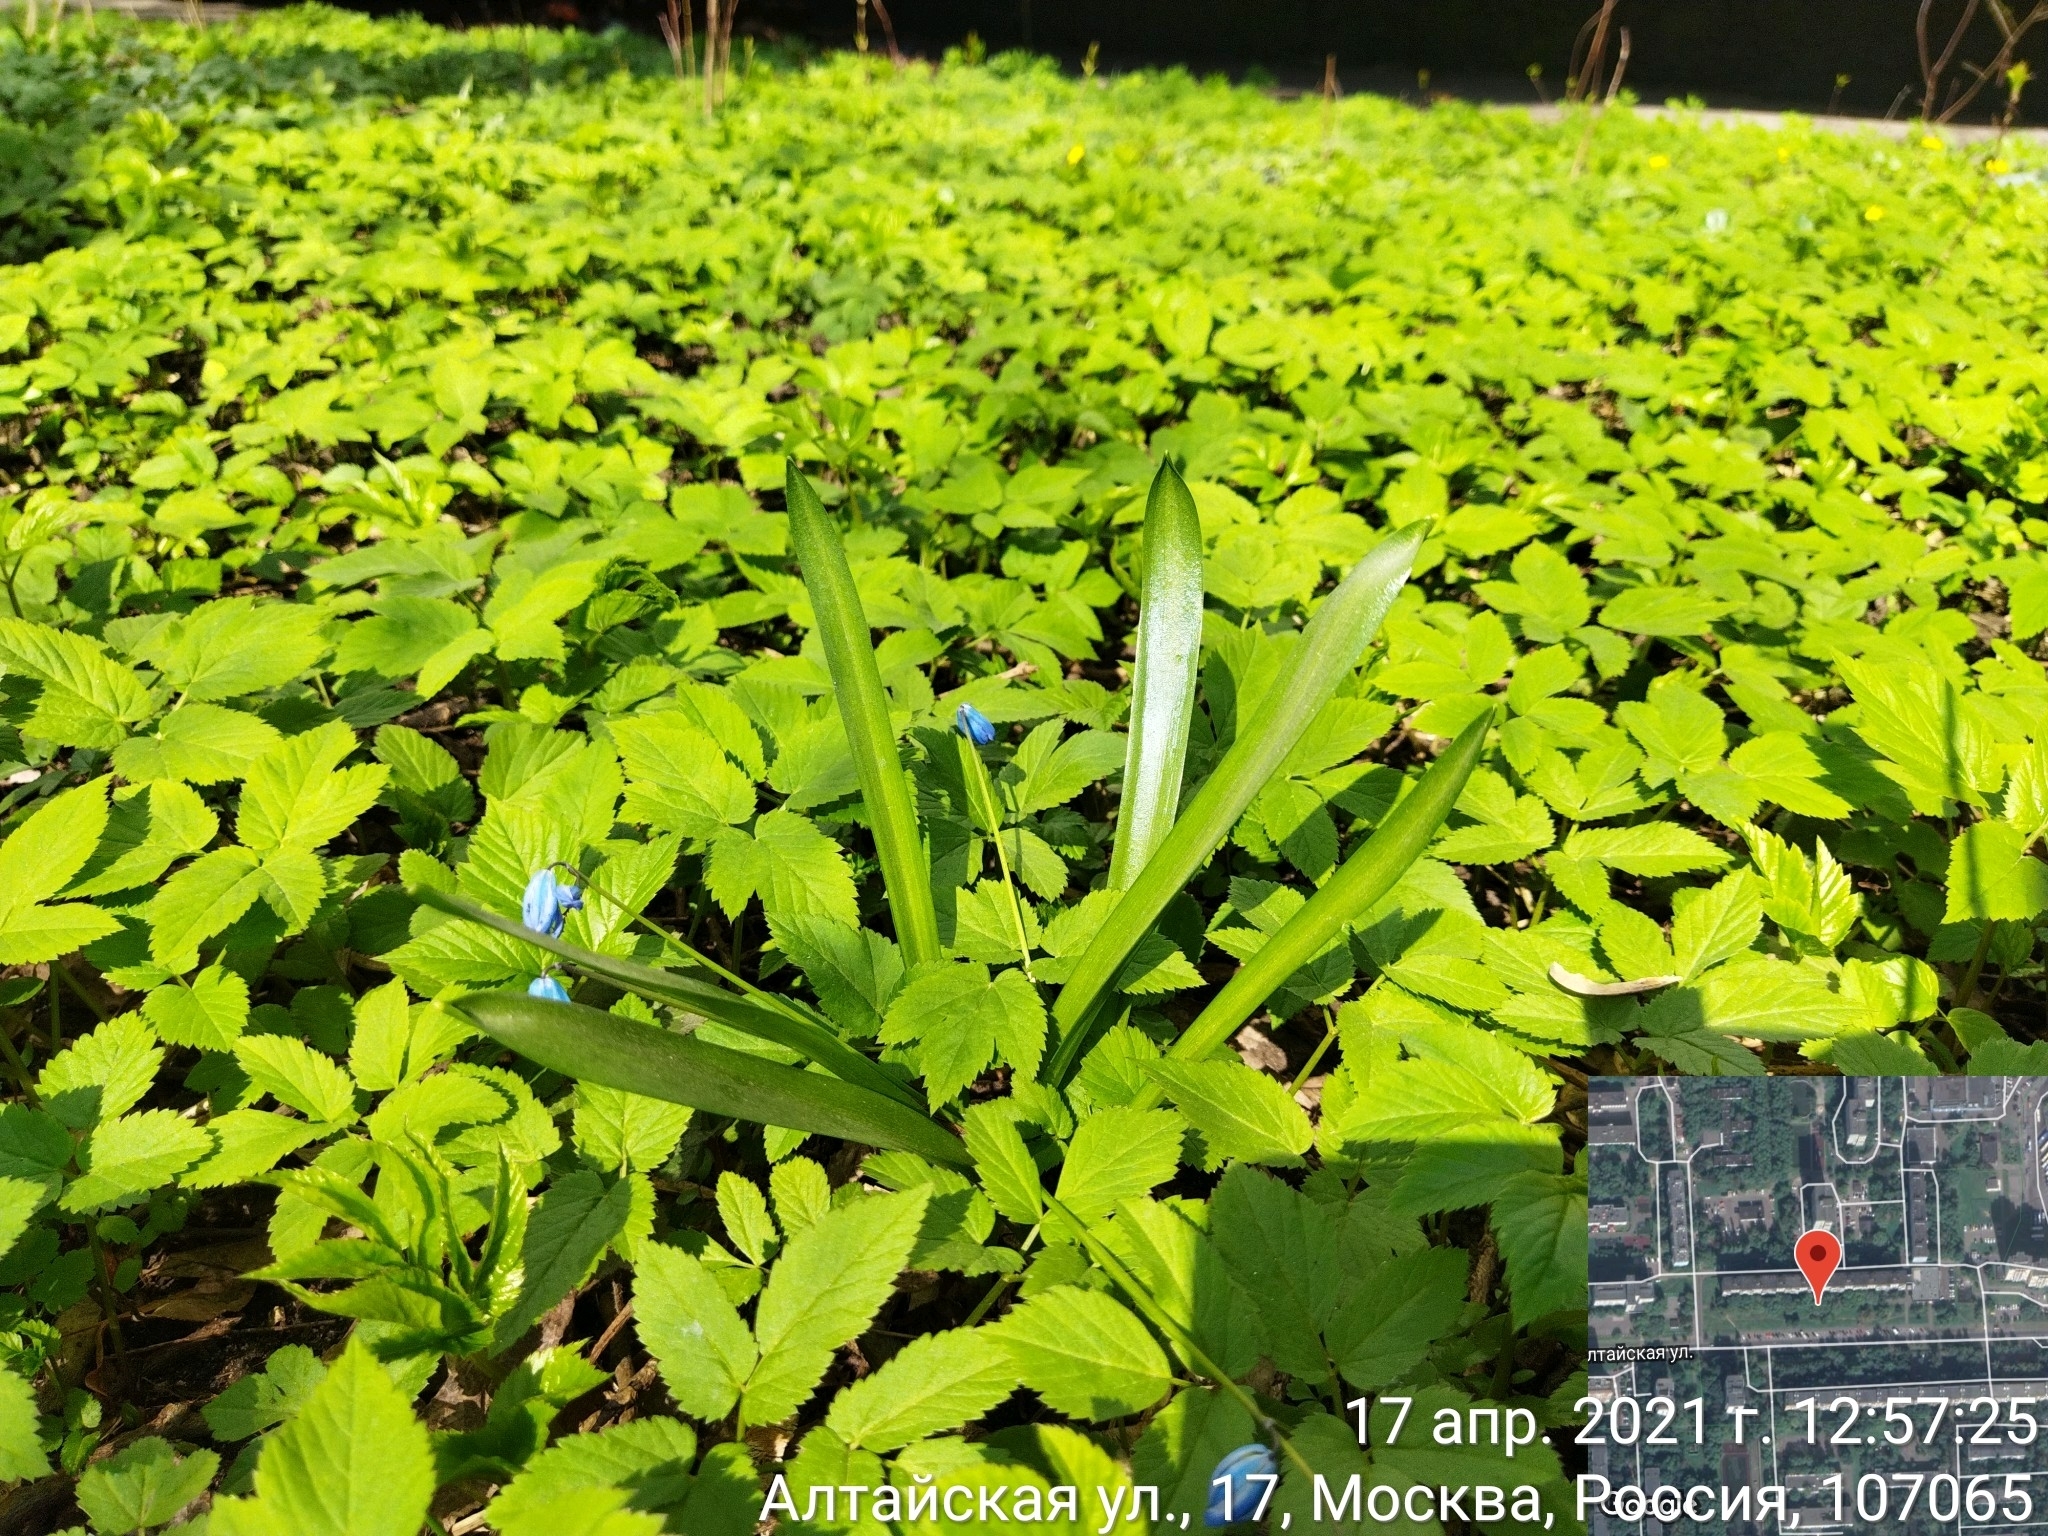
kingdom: Plantae
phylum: Tracheophyta
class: Liliopsida
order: Asparagales
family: Asparagaceae
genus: Scilla
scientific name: Scilla siberica
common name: Siberian squill
